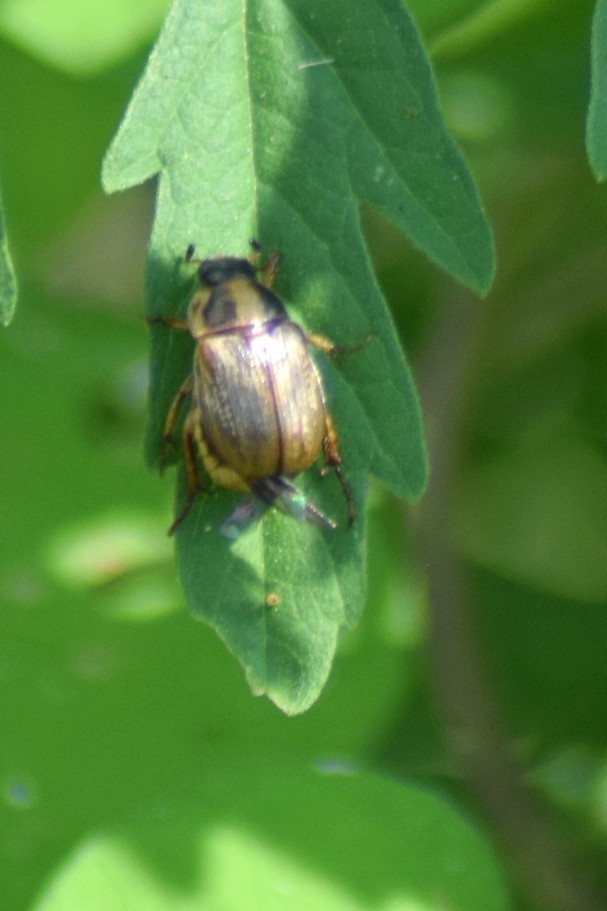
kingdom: Animalia
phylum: Arthropoda
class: Insecta
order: Coleoptera
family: Scarabaeidae
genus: Exomala
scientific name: Exomala orientalis
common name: Oriental beetle
